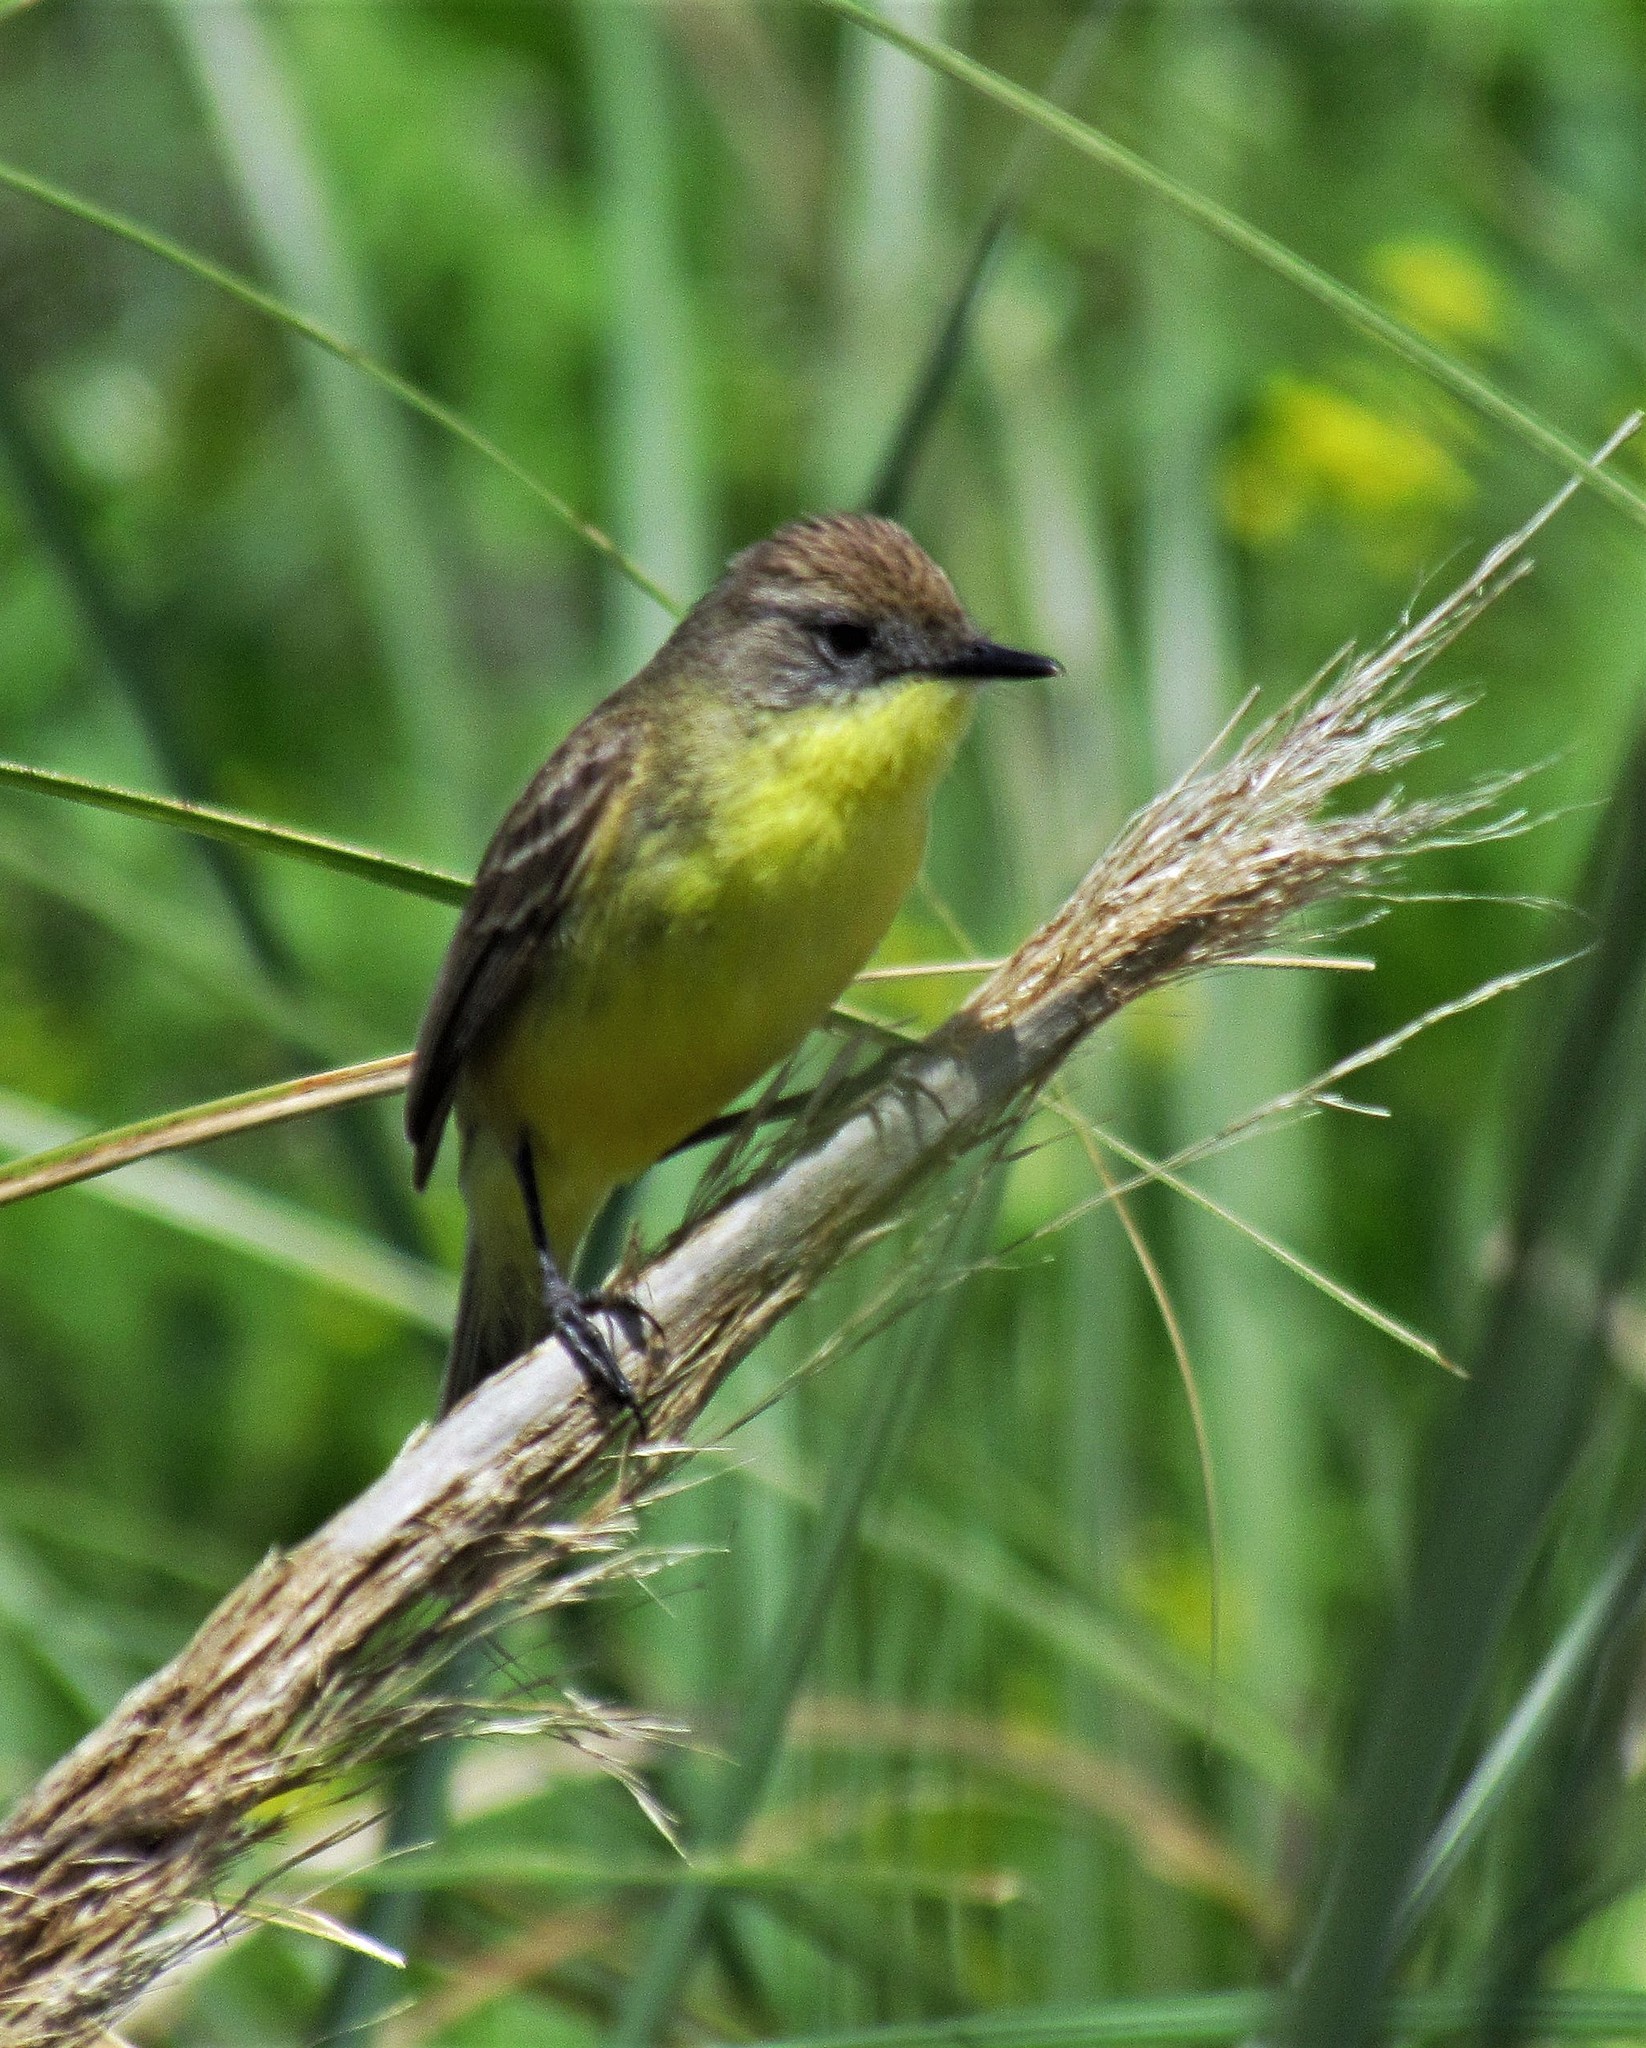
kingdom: Animalia
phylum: Chordata
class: Aves
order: Passeriformes
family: Tyrannidae
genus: Pseudocolopteryx
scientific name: Pseudocolopteryx flaviventris
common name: Warbling doradito
